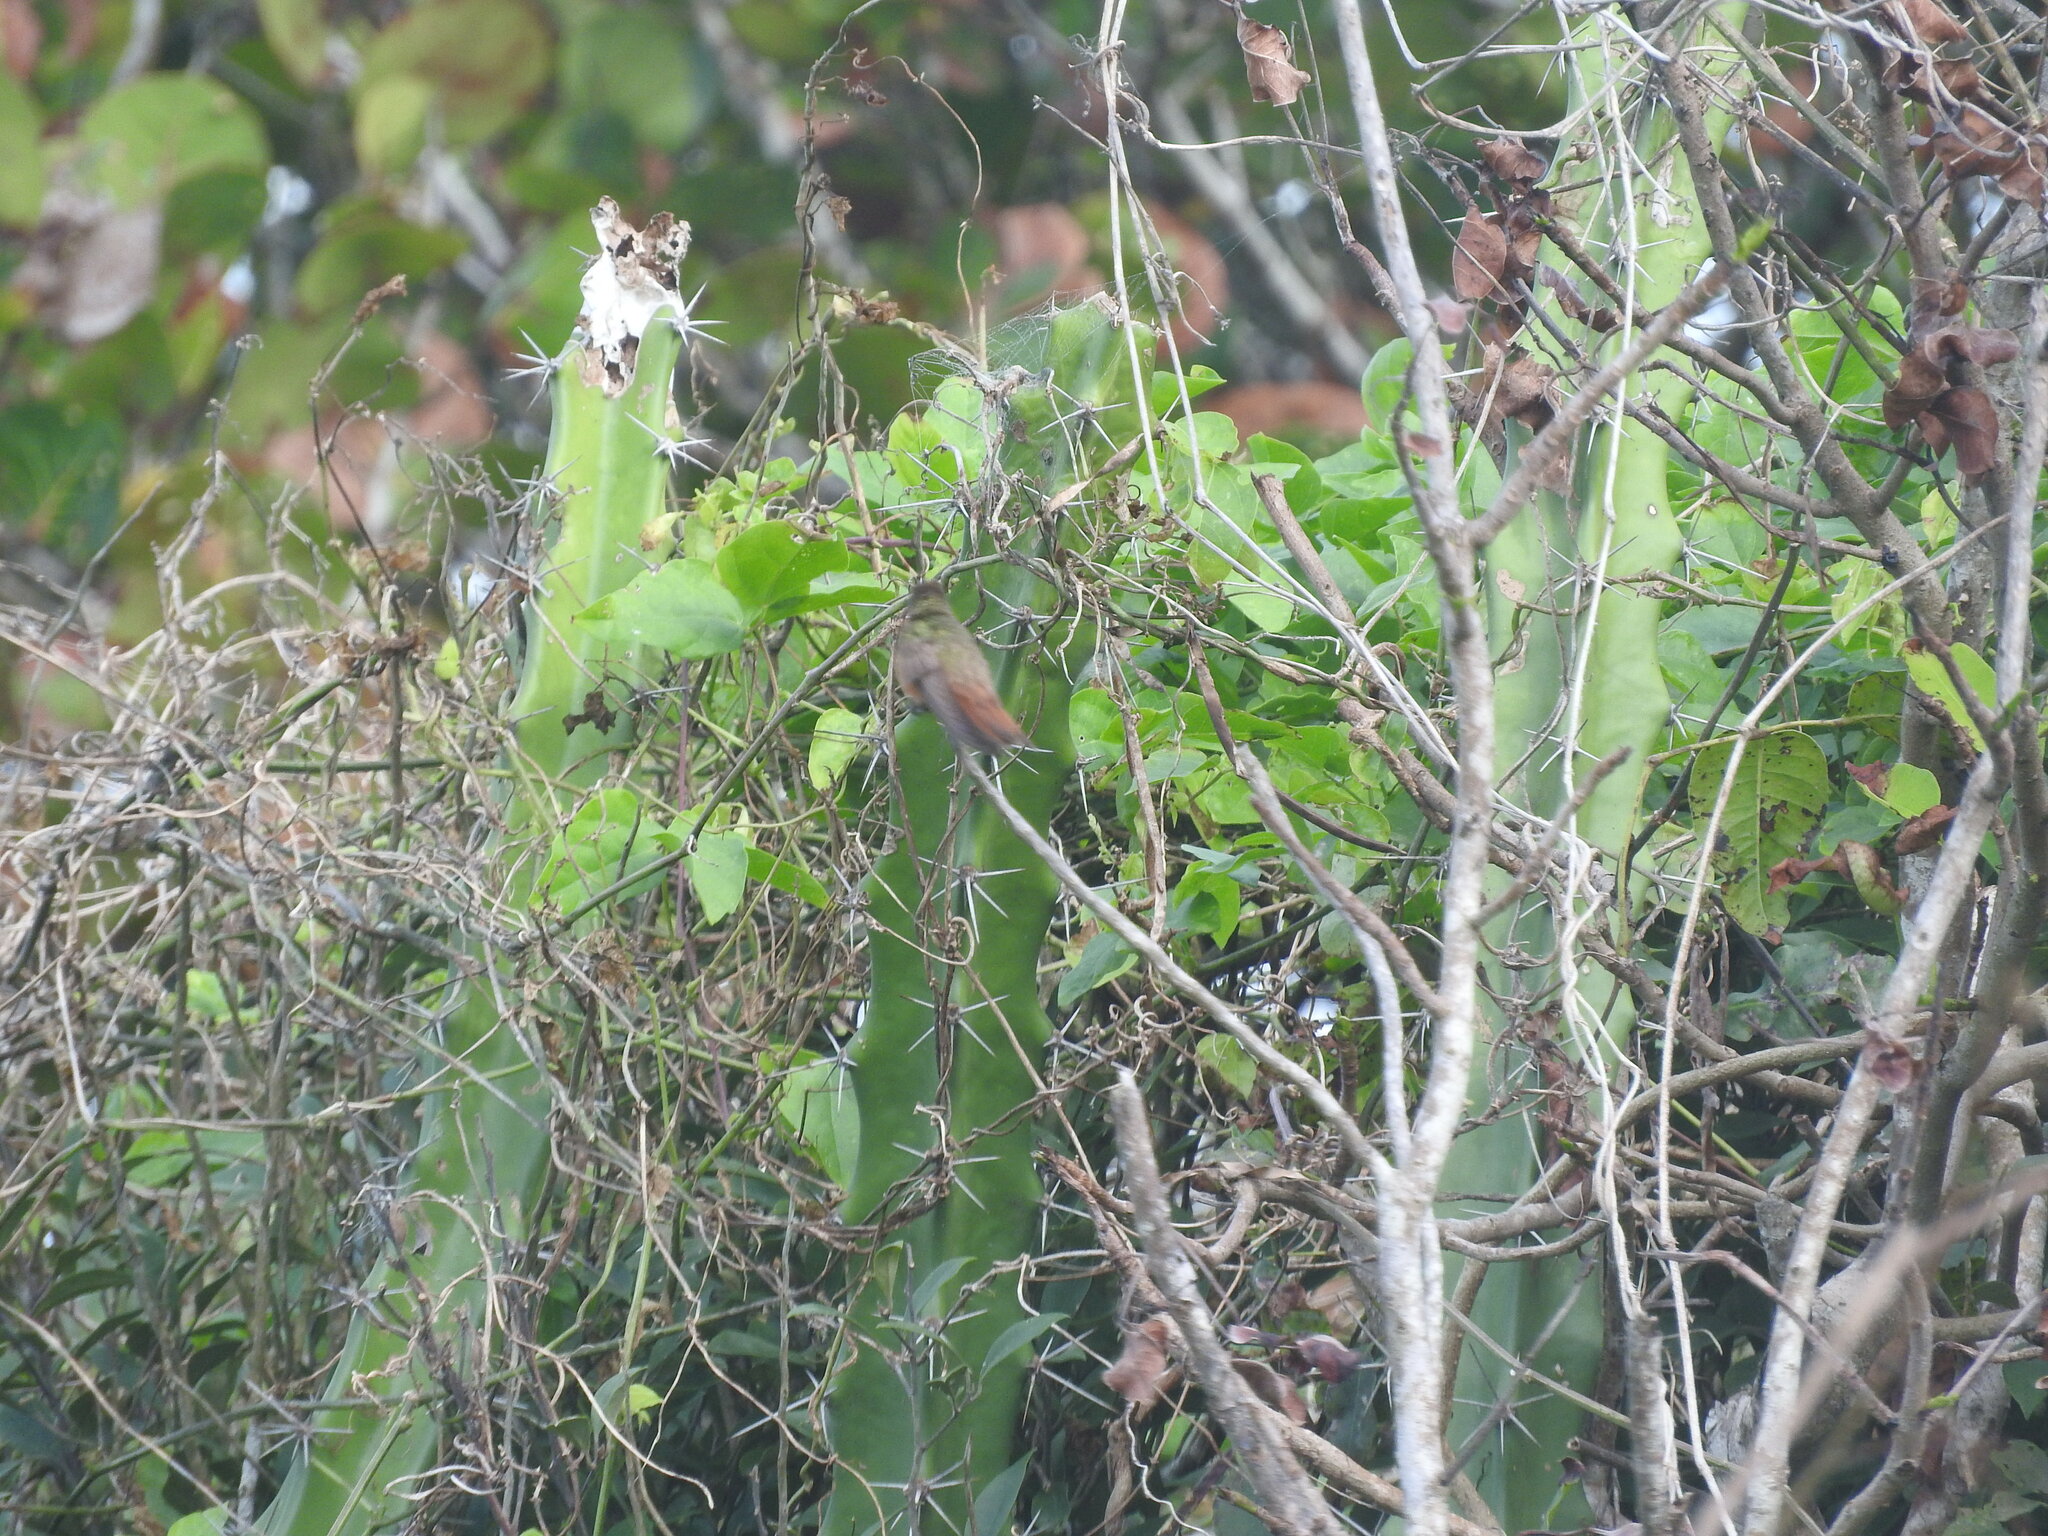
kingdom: Animalia
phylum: Chordata
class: Aves
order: Apodiformes
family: Trochilidae
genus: Amazilia
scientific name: Amazilia yucatanensis
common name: Buff-bellied hummingbird
